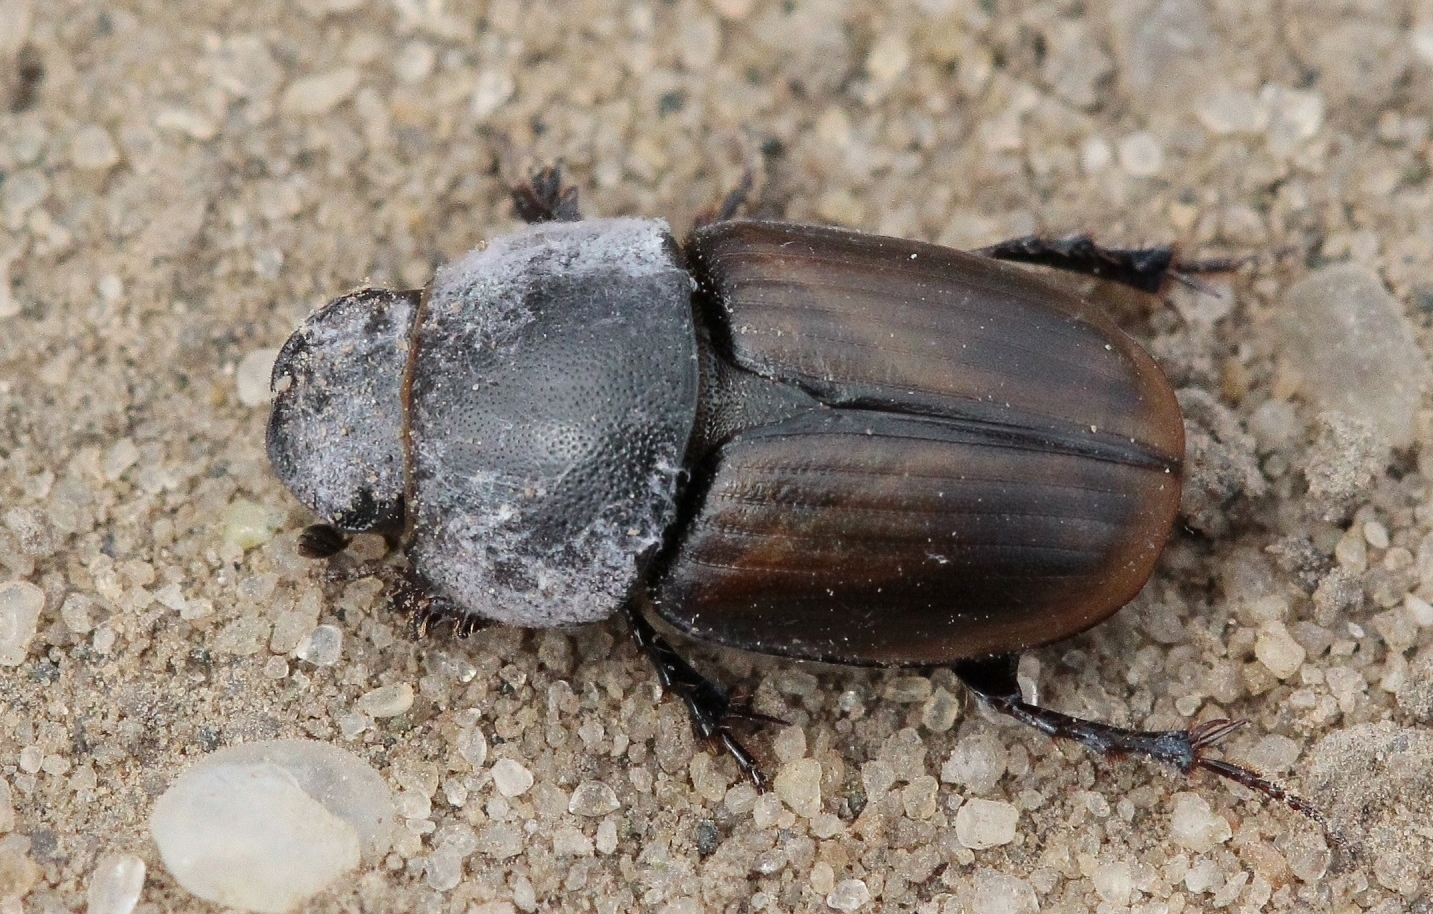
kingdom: Animalia
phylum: Arthropoda
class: Insecta
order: Coleoptera
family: Scarabaeidae
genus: Colobopterus
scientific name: Colobopterus erraticus
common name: Erratic small dung beetle
